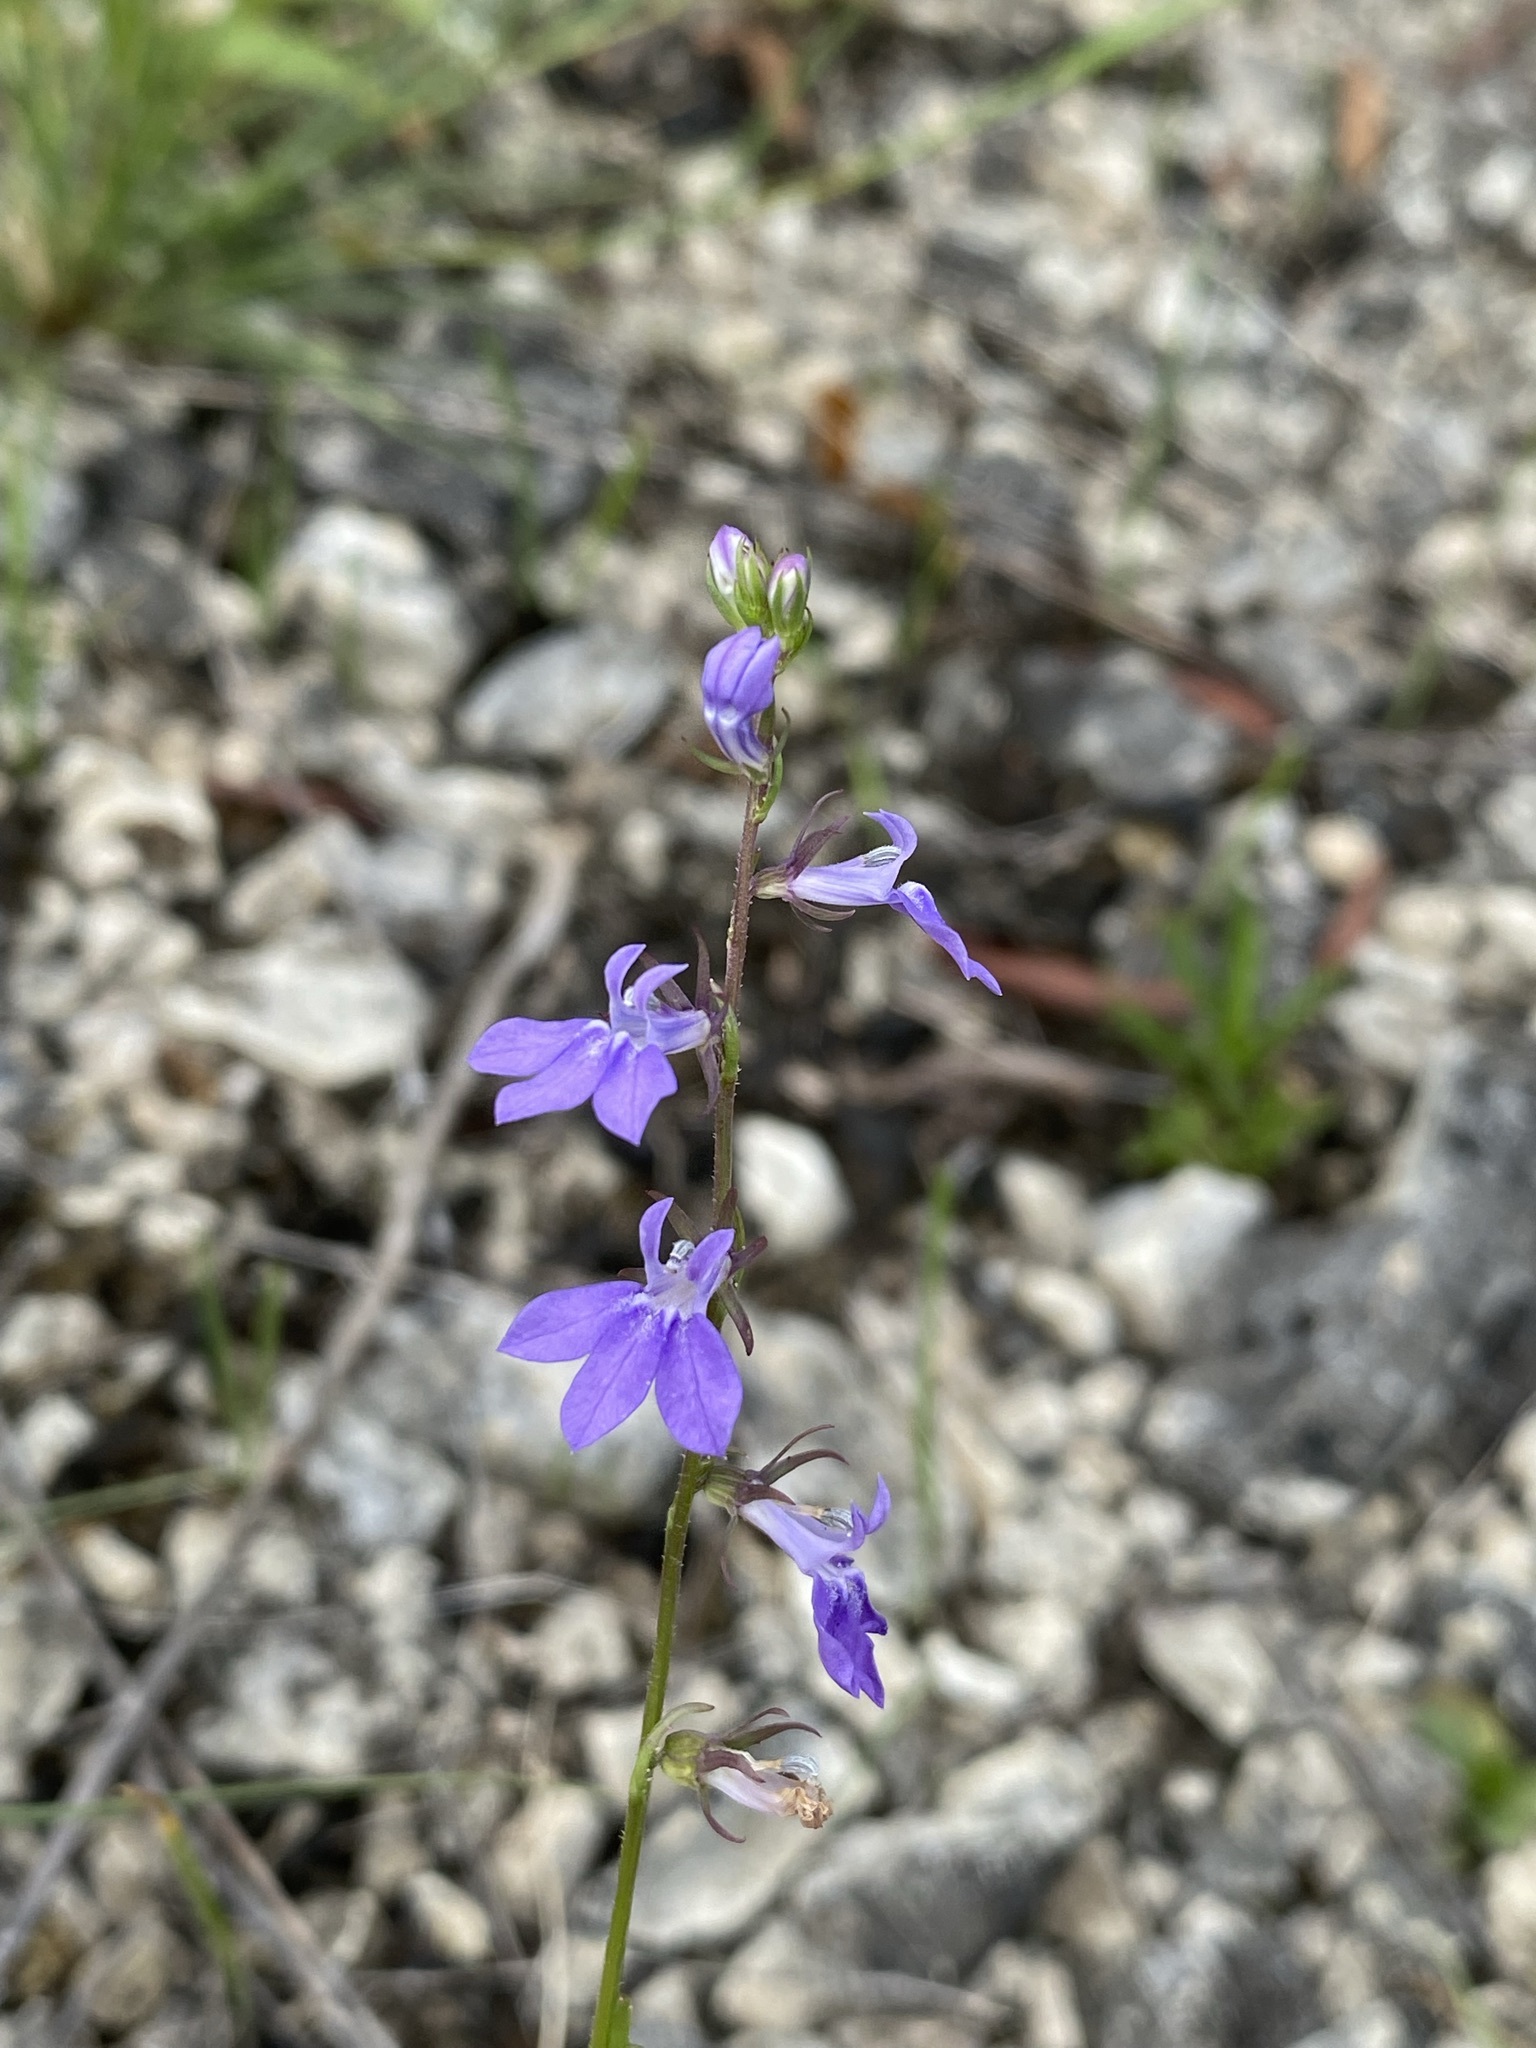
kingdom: Plantae
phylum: Tracheophyta
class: Magnoliopsida
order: Asterales
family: Campanulaceae
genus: Lobelia
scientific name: Lobelia gattingeri
